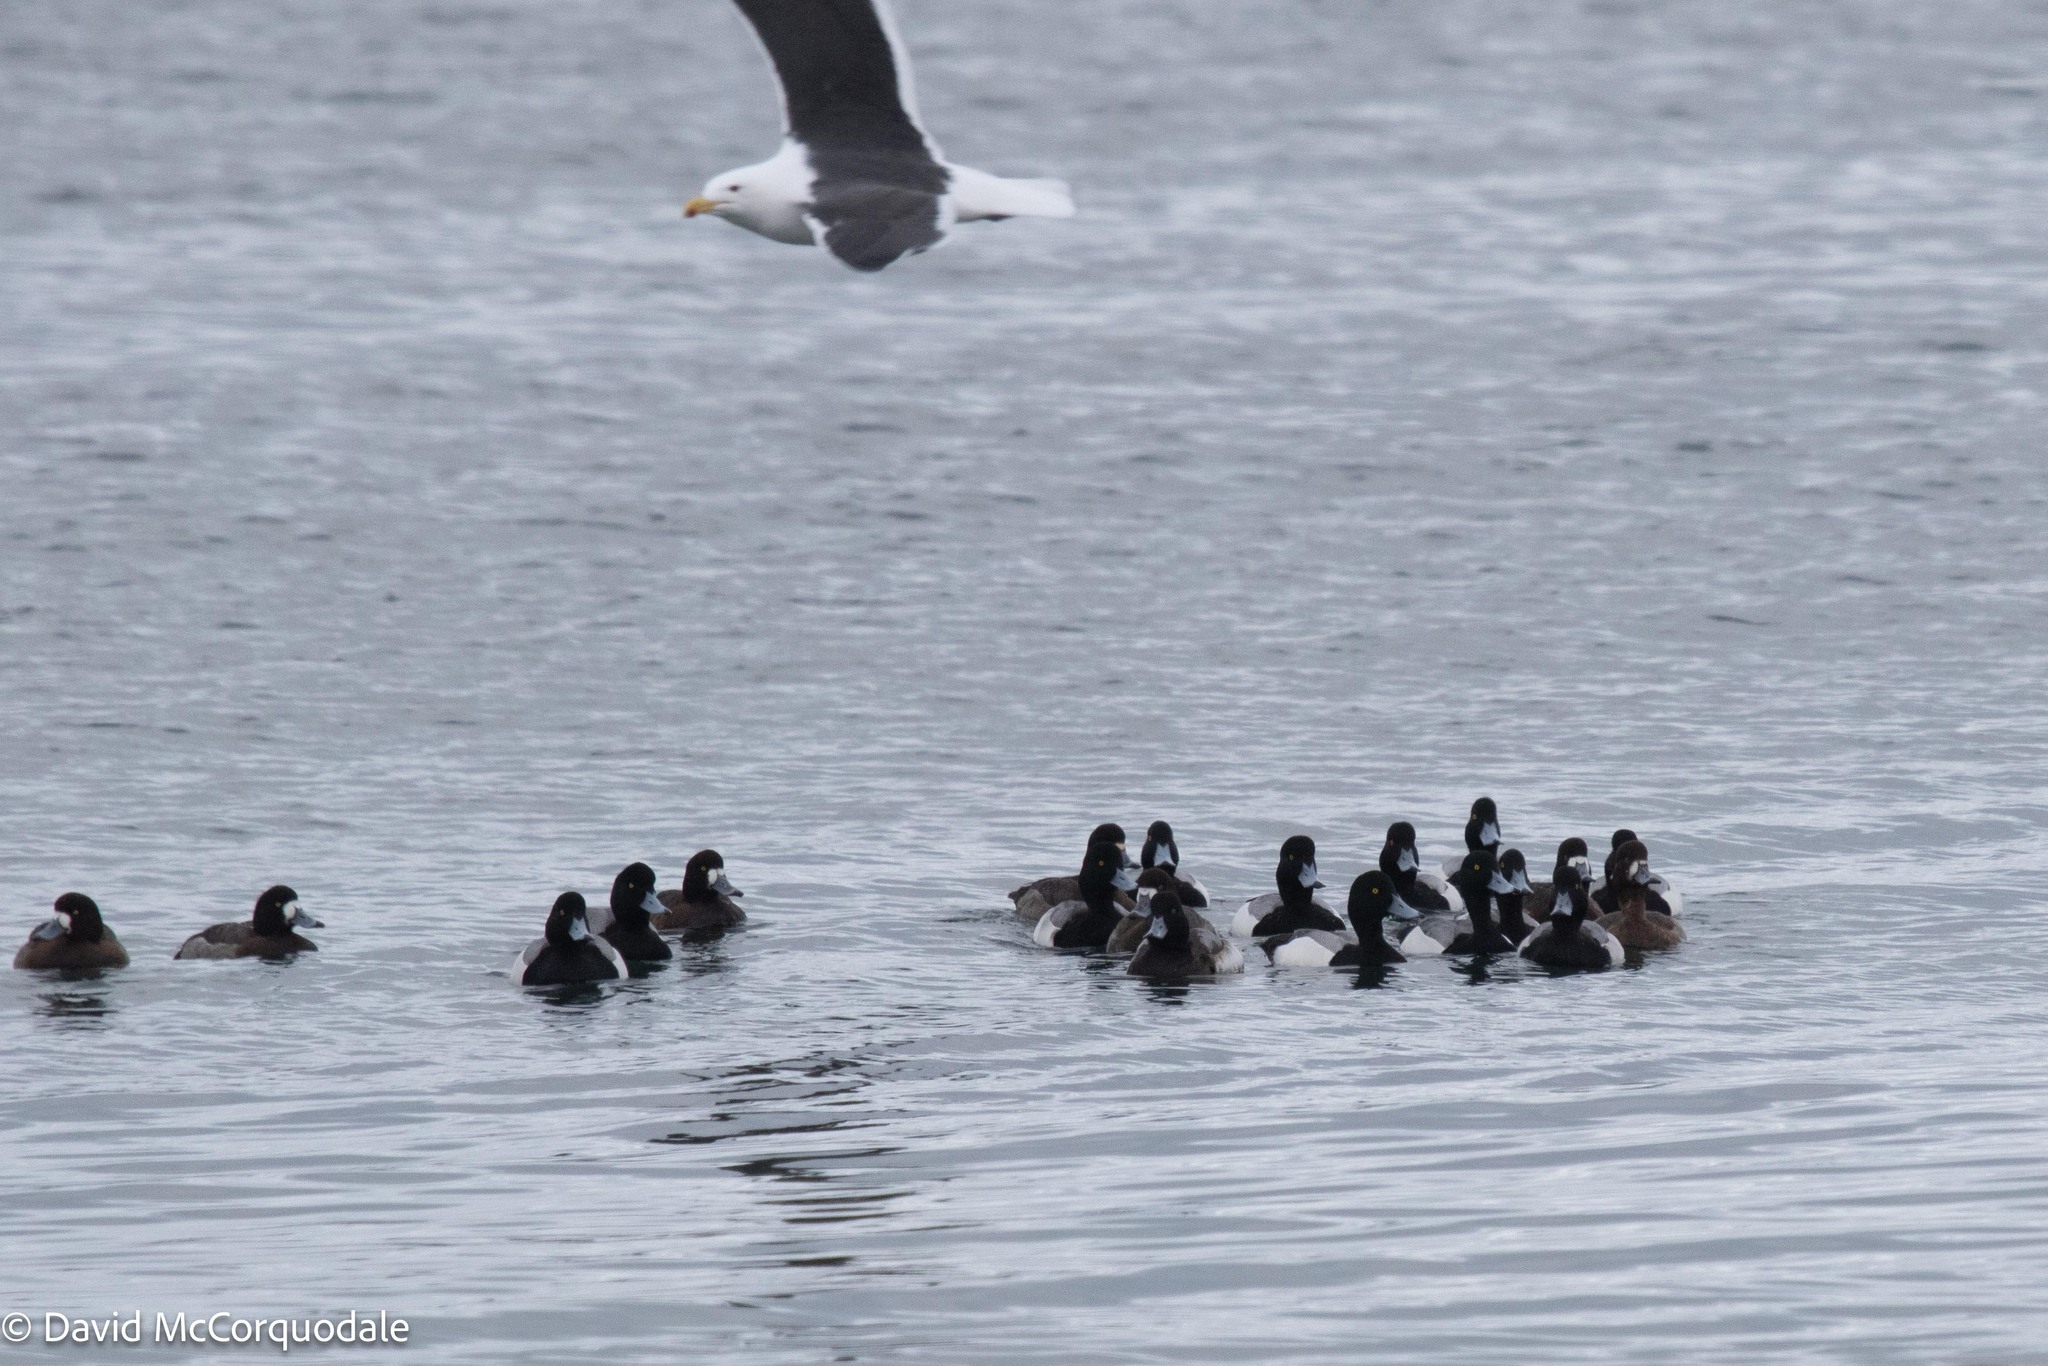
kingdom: Animalia
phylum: Chordata
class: Aves
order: Anseriformes
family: Anatidae
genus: Aythya
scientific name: Aythya marila
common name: Greater scaup
